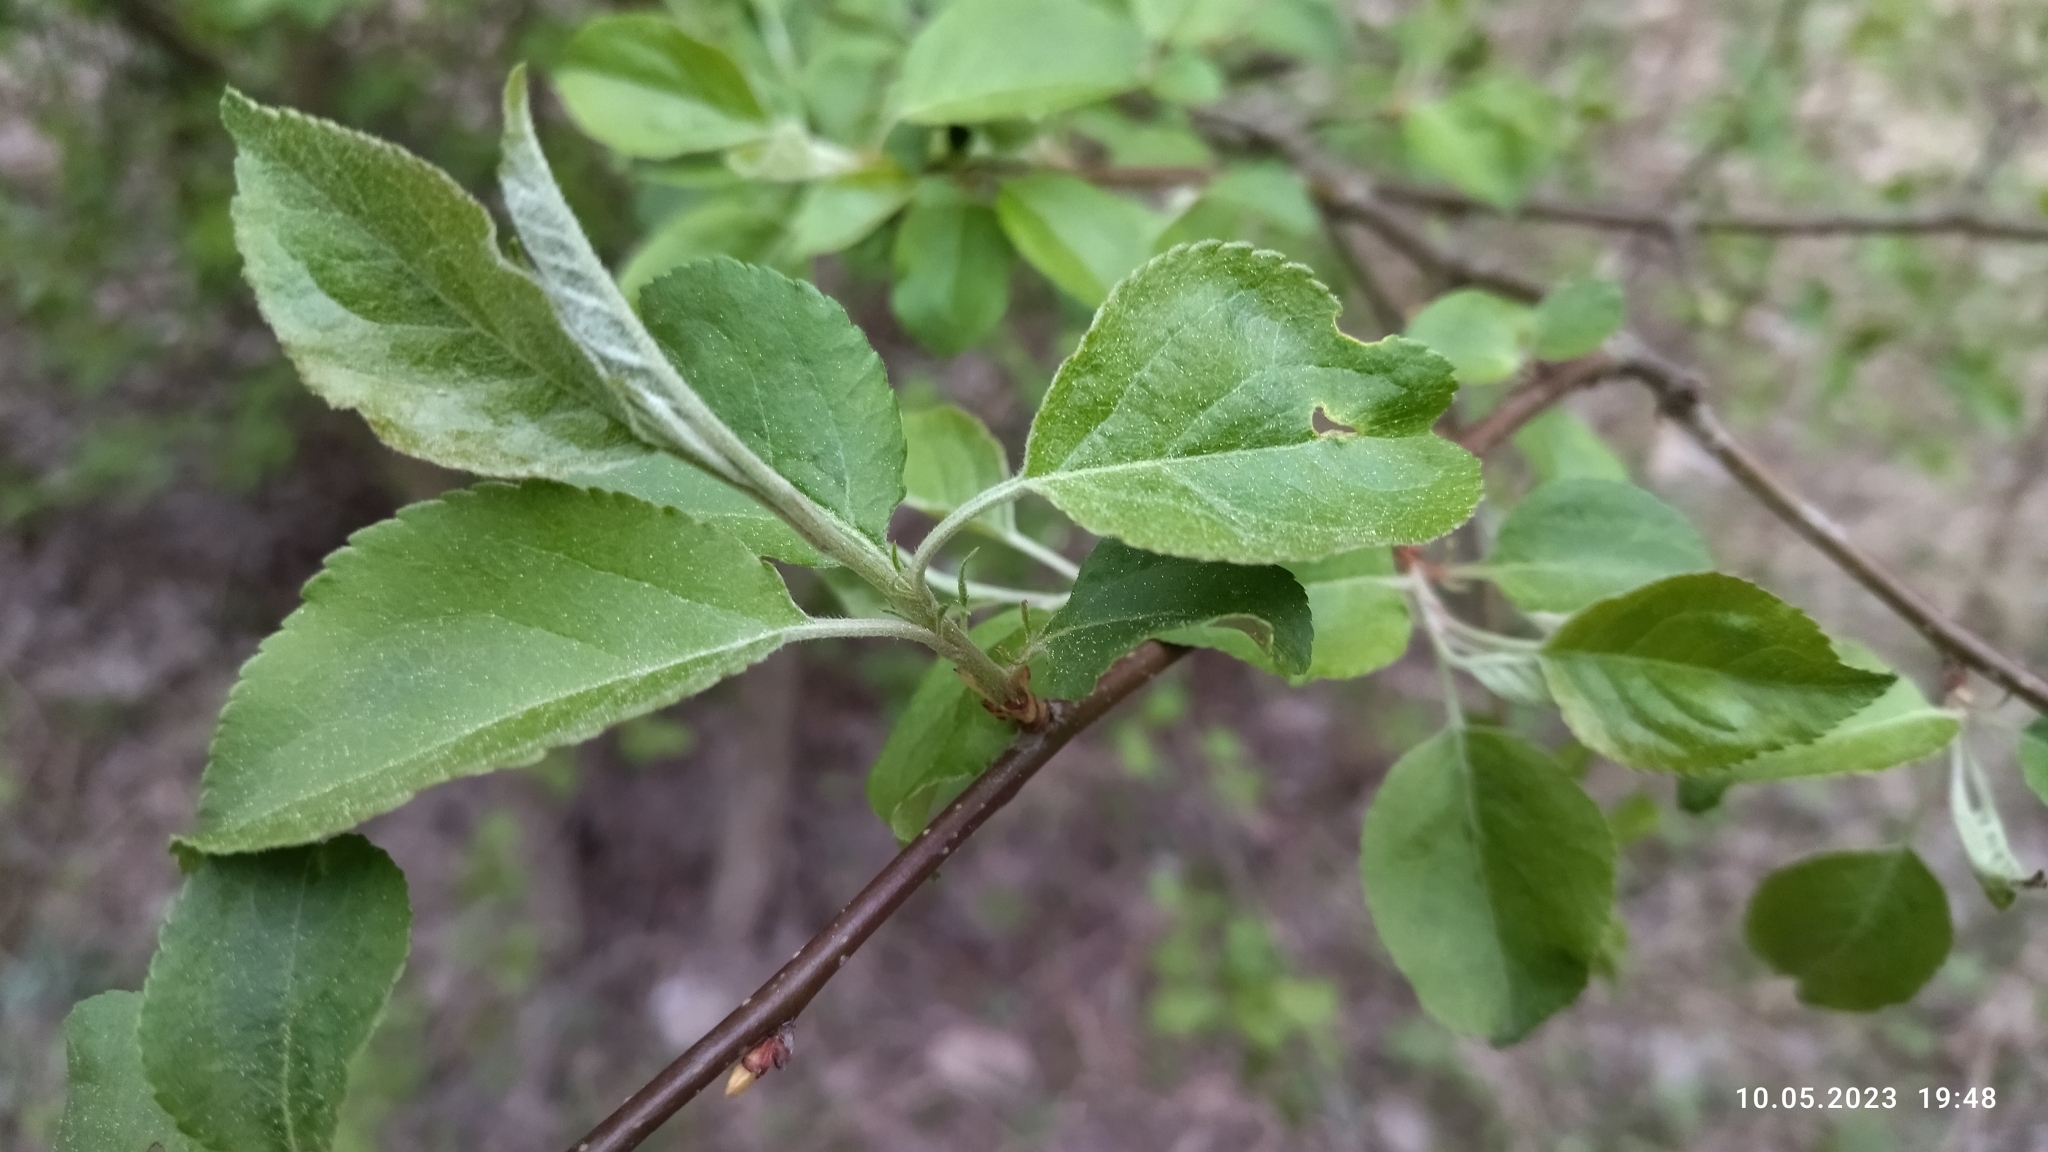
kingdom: Plantae
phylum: Tracheophyta
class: Magnoliopsida
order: Rosales
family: Rosaceae
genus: Malus
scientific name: Malus domestica
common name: Apple
